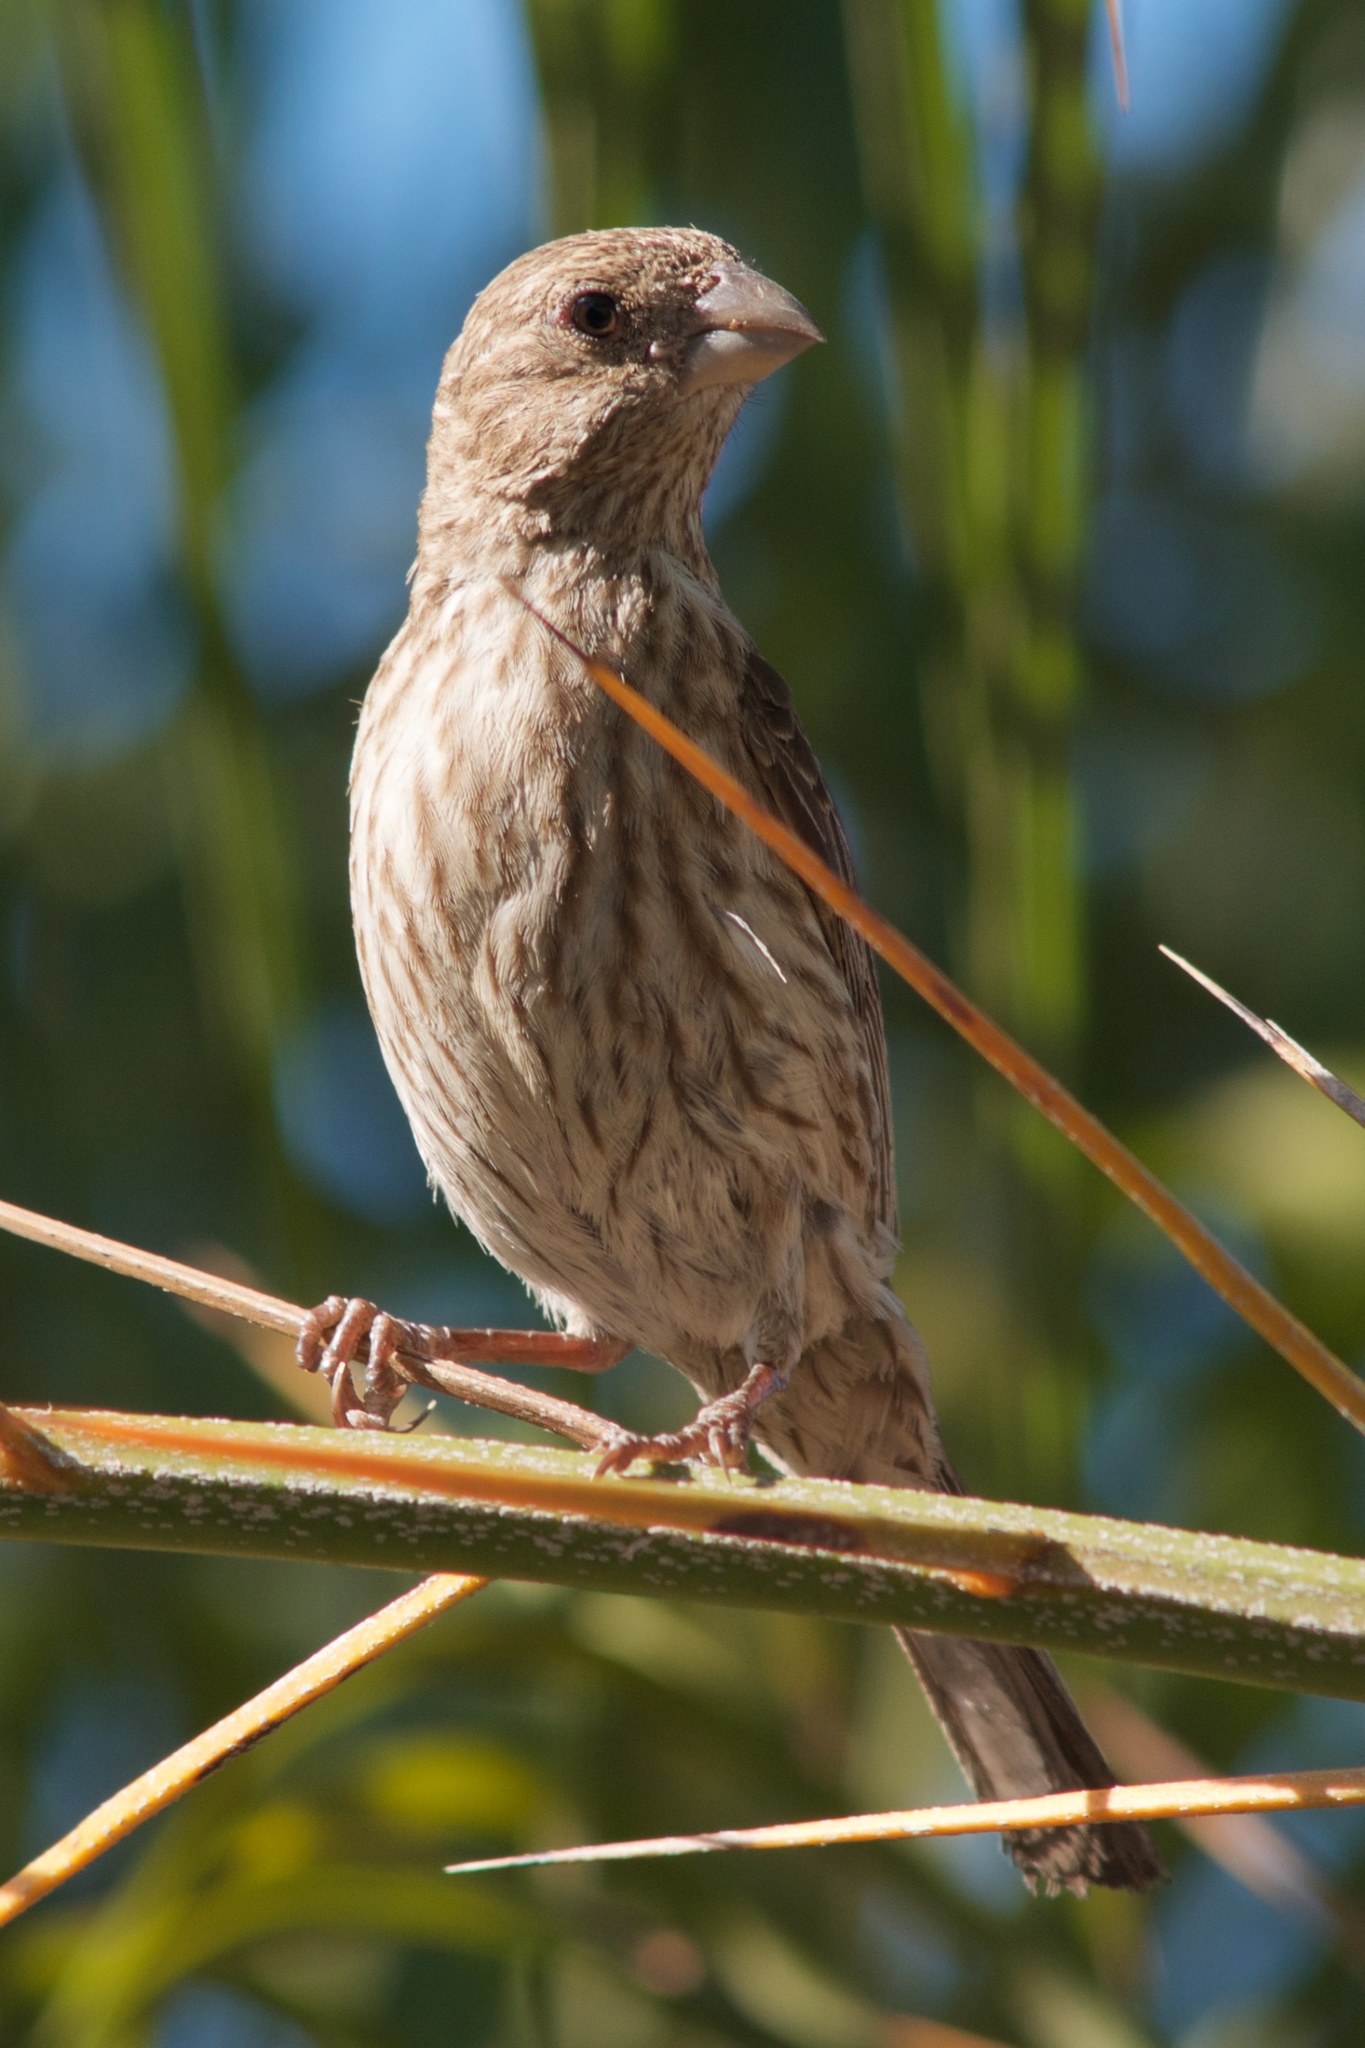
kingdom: Animalia
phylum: Chordata
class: Aves
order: Passeriformes
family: Fringillidae
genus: Haemorhous
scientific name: Haemorhous mexicanus
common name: House finch
